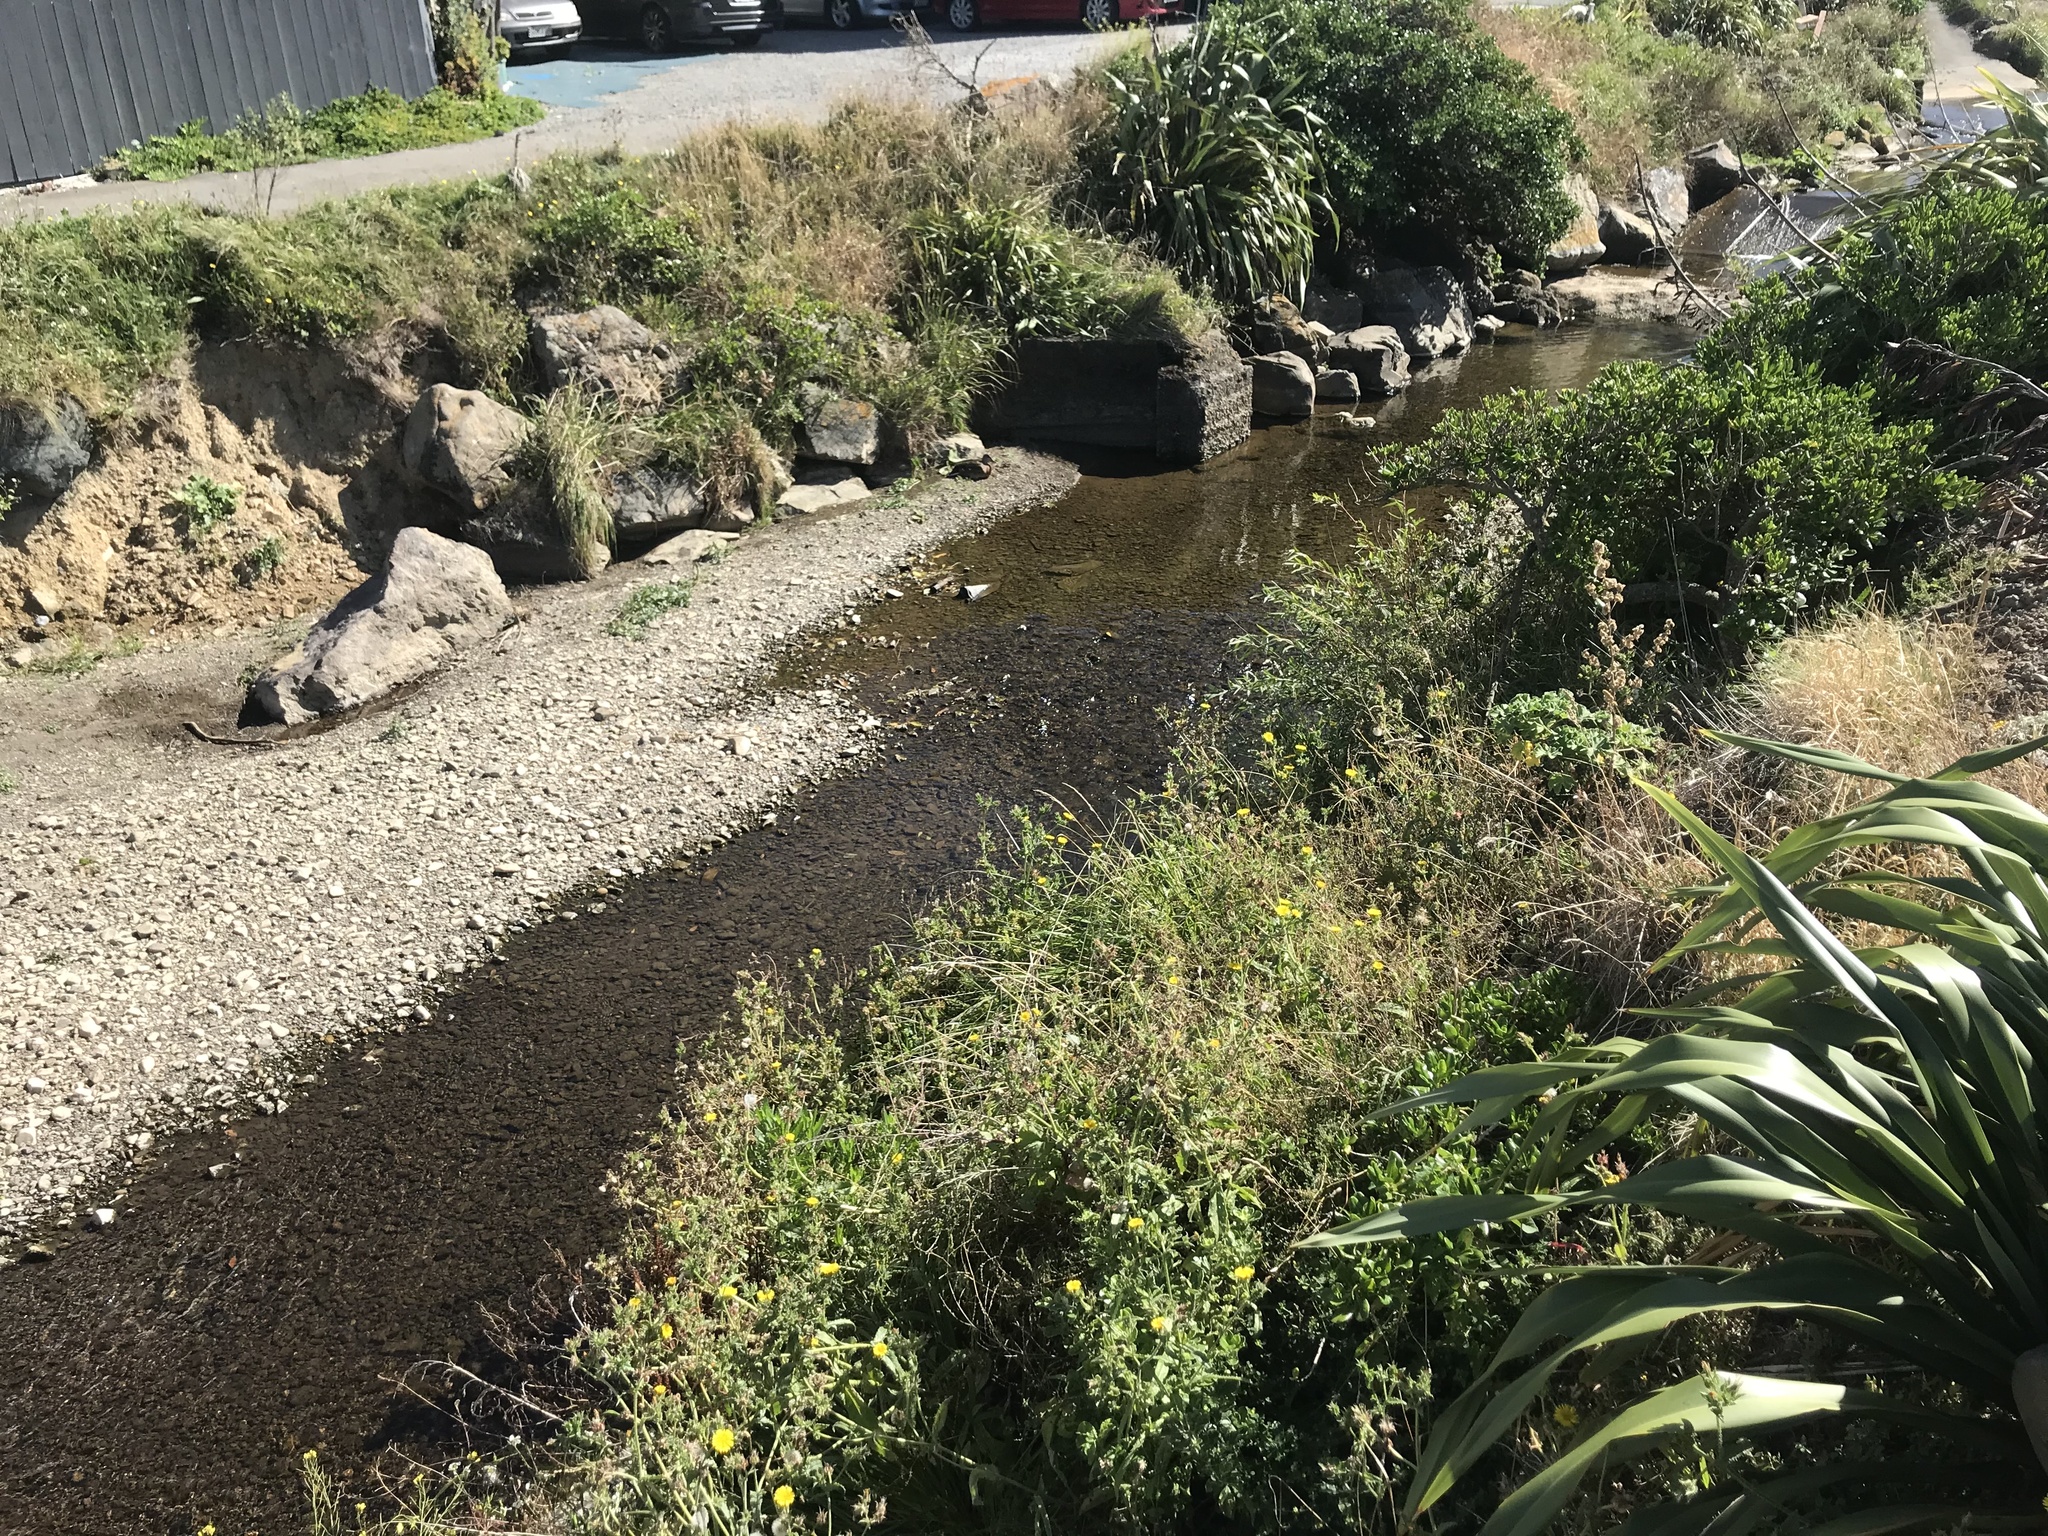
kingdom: Plantae
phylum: Tracheophyta
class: Magnoliopsida
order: Asterales
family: Asteraceae
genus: Helminthotheca
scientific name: Helminthotheca echioides
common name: Ox-tongue
